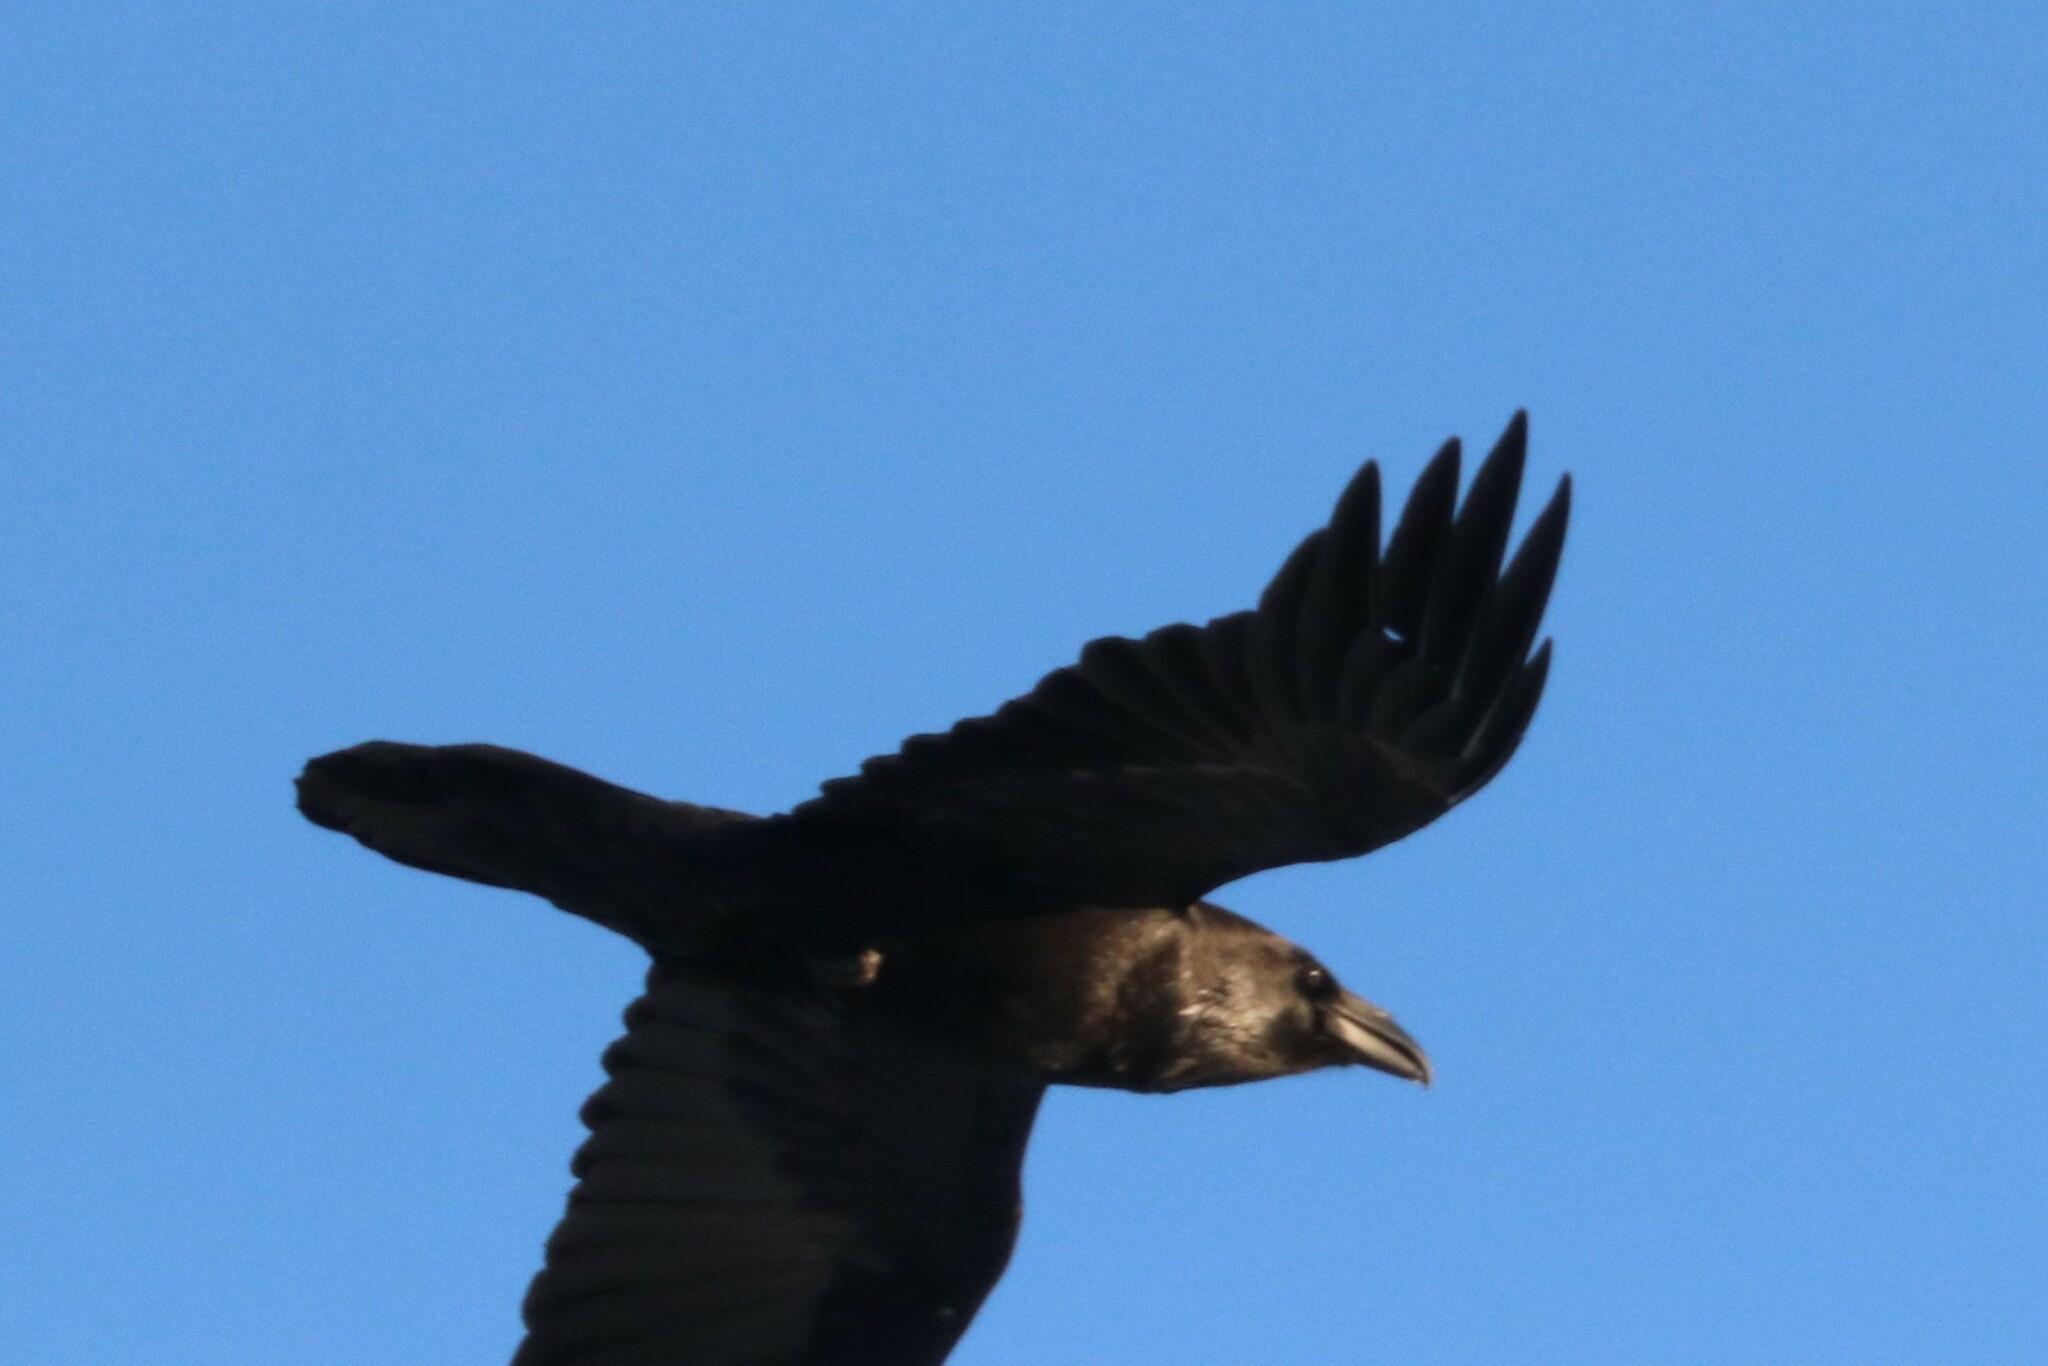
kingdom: Animalia
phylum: Chordata
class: Aves
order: Passeriformes
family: Corvidae
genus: Corvus
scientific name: Corvus corax
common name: Common raven
